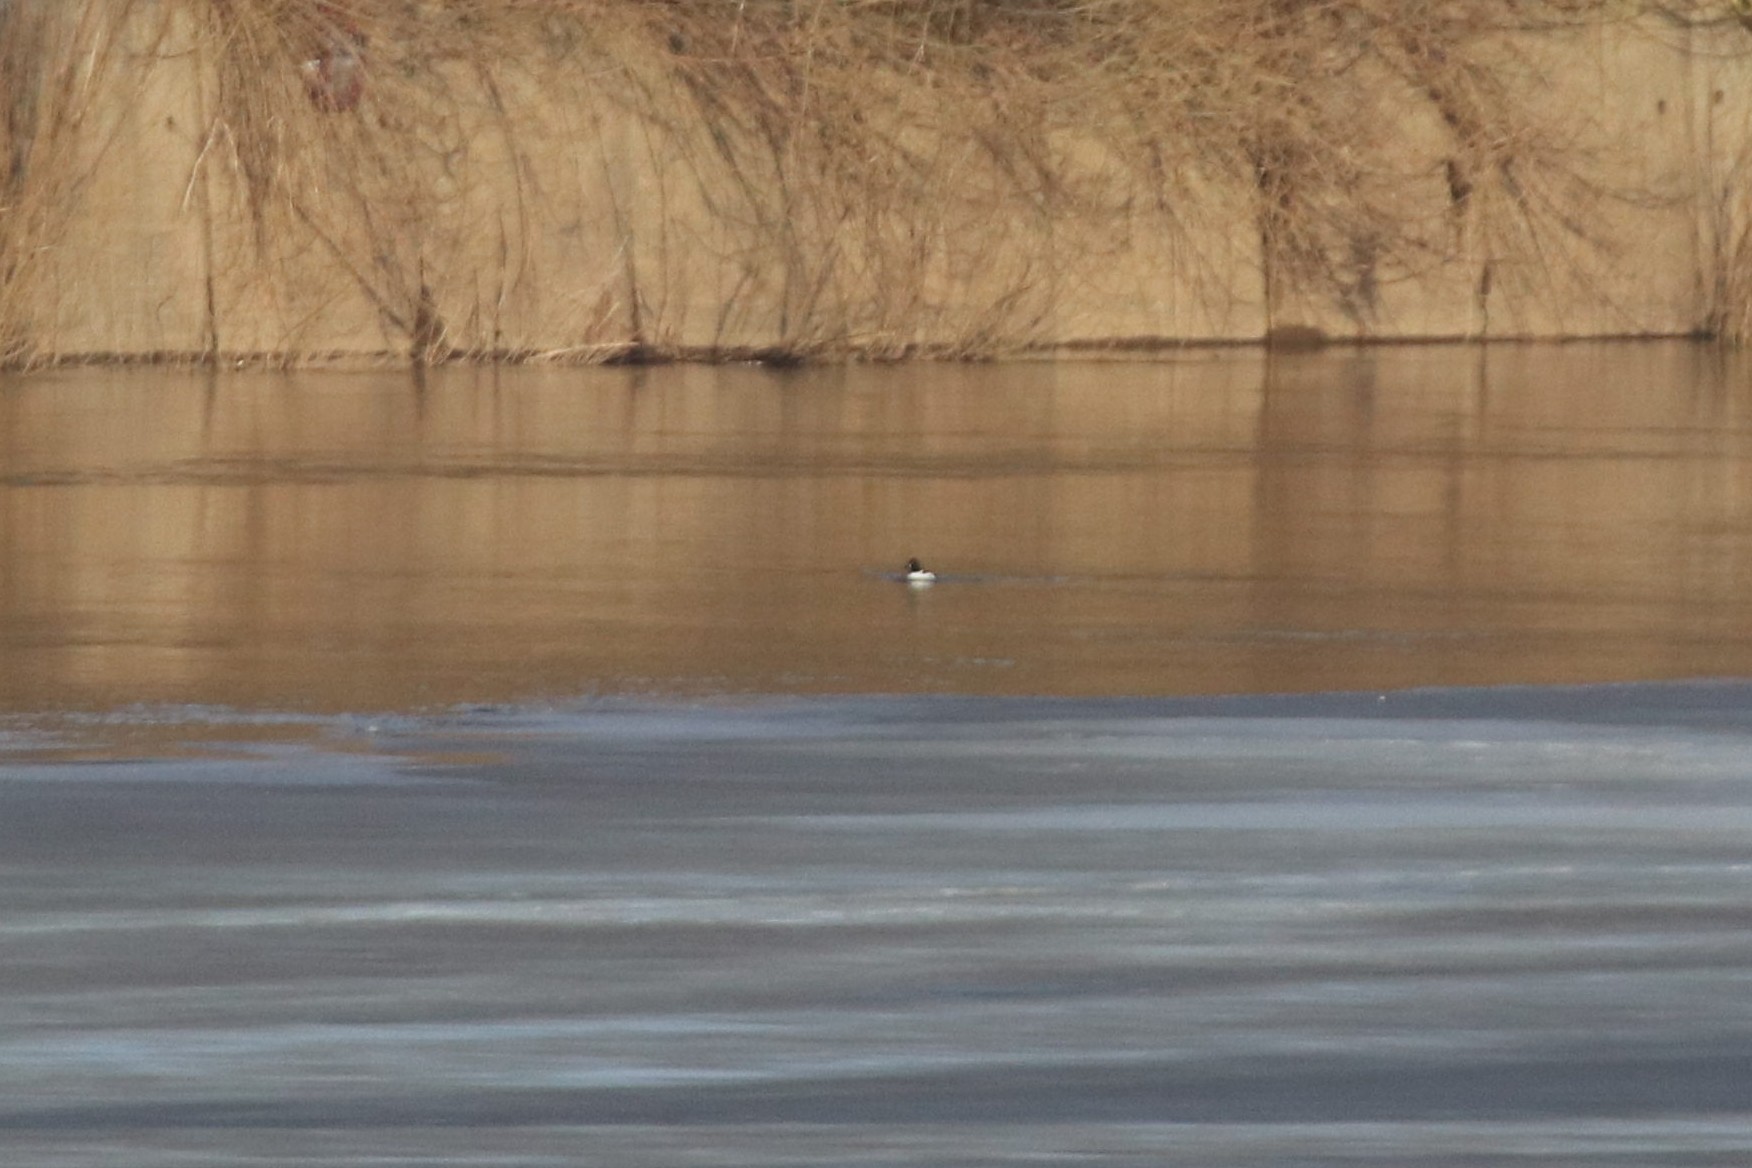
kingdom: Animalia
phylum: Chordata
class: Aves
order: Anseriformes
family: Anatidae
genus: Bucephala
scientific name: Bucephala clangula
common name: Common goldeneye
